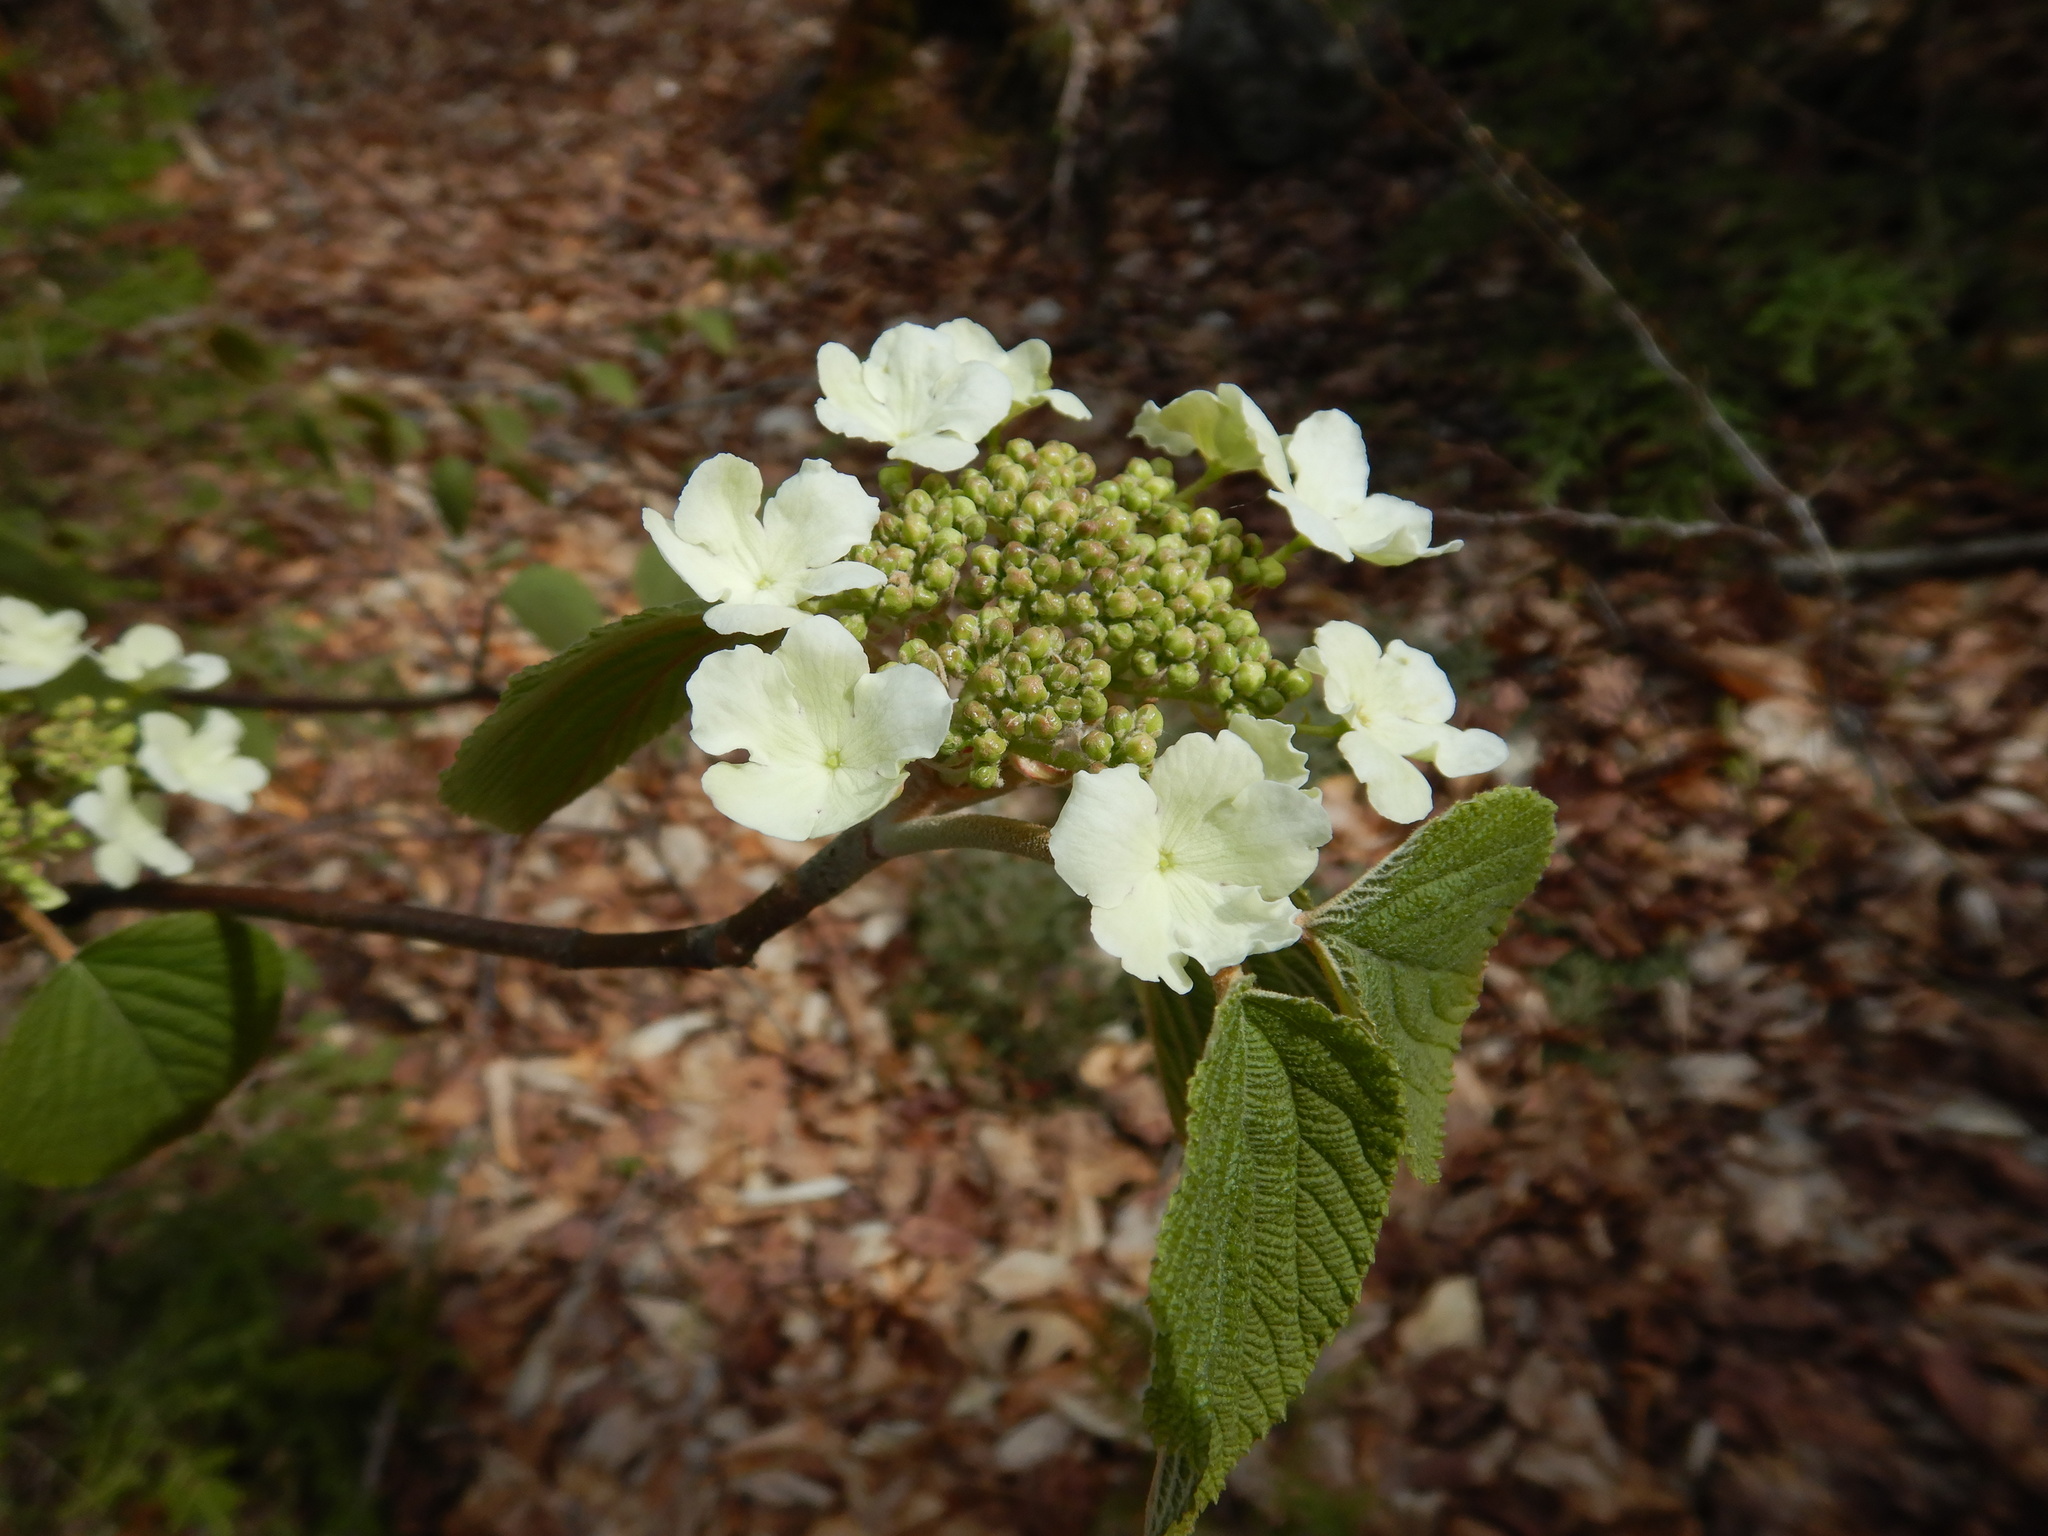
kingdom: Plantae
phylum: Tracheophyta
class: Magnoliopsida
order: Dipsacales
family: Viburnaceae
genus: Viburnum
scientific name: Viburnum lantanoides
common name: Hobblebush
